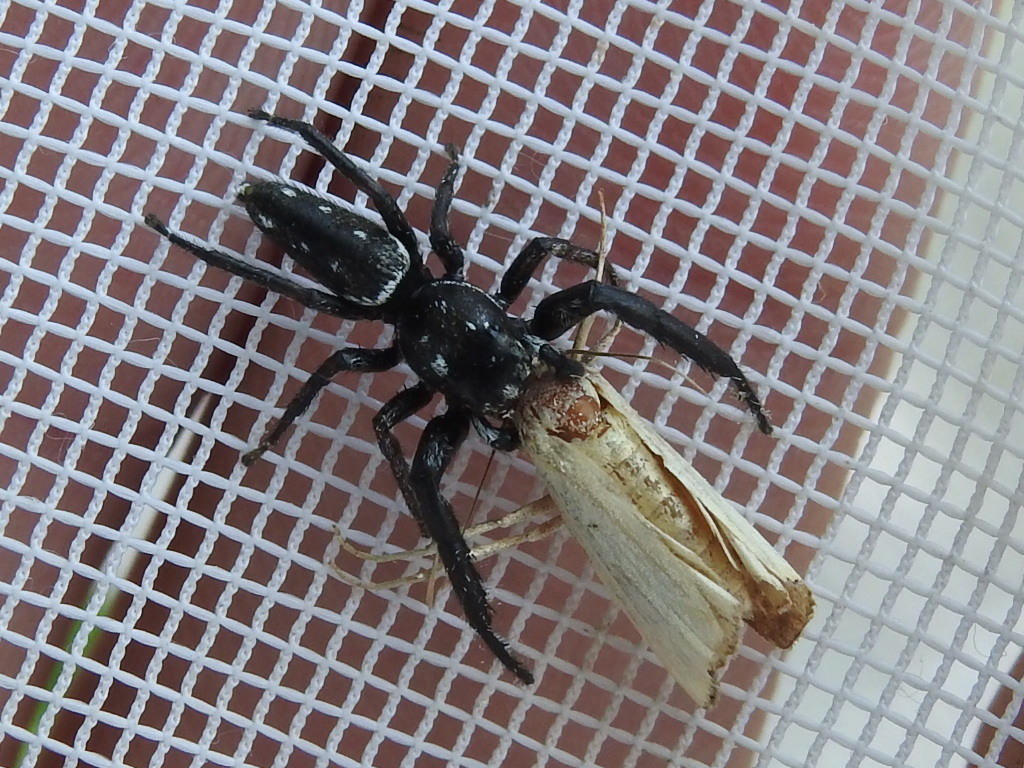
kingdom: Animalia
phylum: Arthropoda
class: Arachnida
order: Araneae
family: Salticidae
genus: Marpissa
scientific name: Marpissa formosa
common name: Short-bellied slender jumping spider
